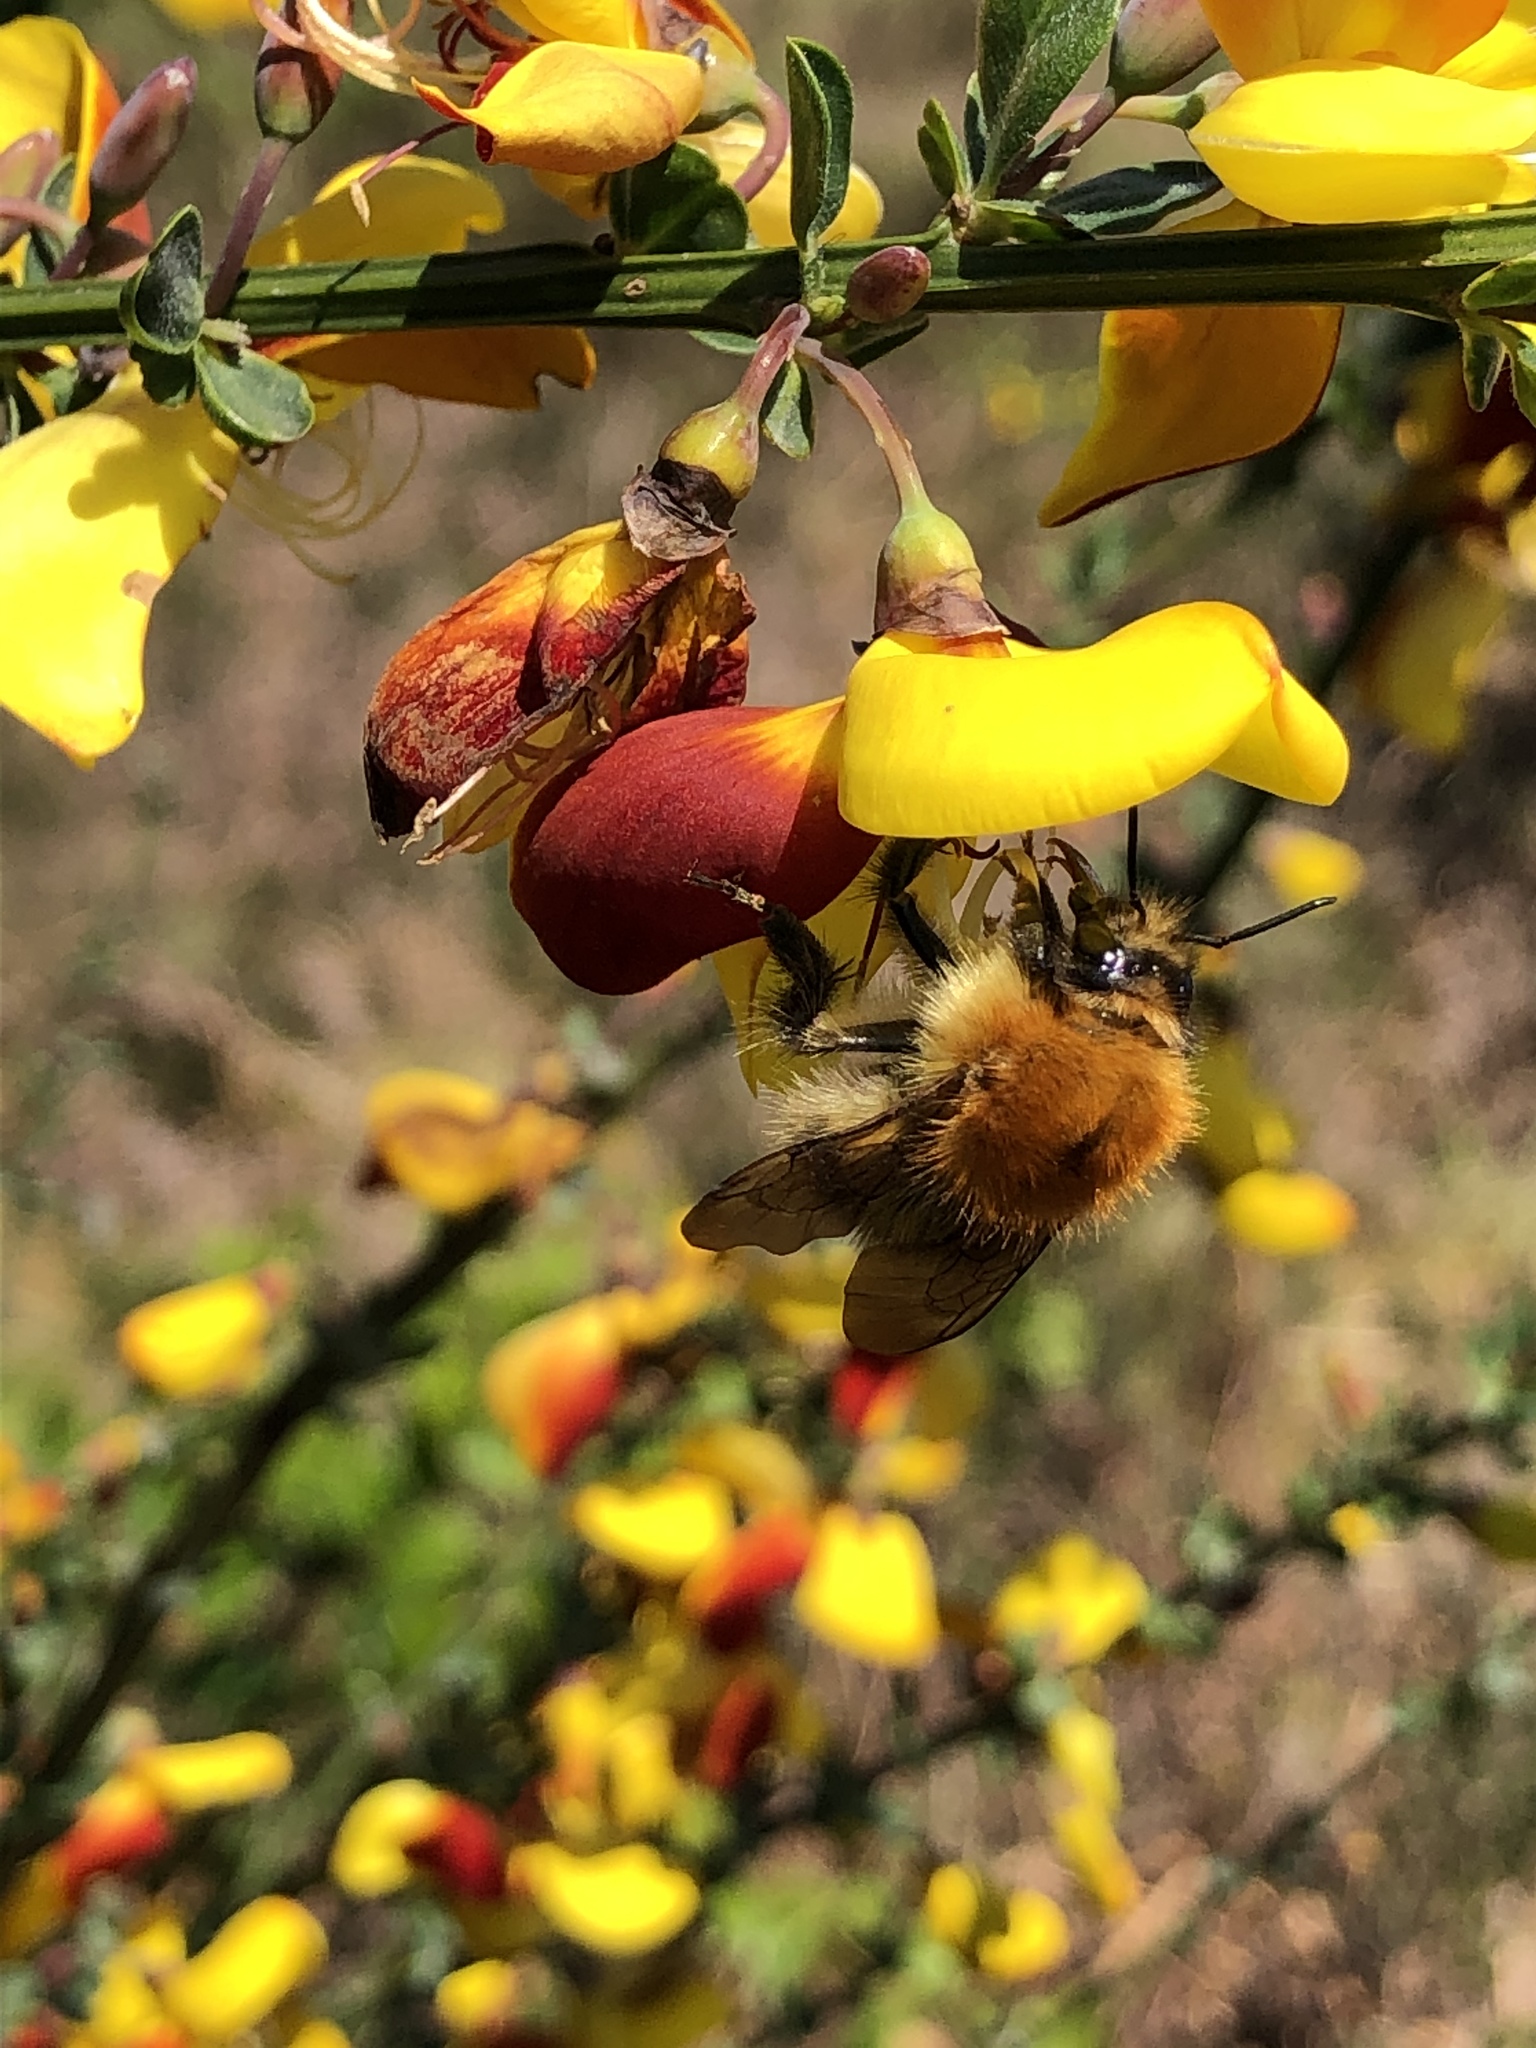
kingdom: Animalia
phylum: Arthropoda
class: Insecta
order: Hymenoptera
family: Apidae
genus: Bombus
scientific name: Bombus pascuorum
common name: Common carder bee
